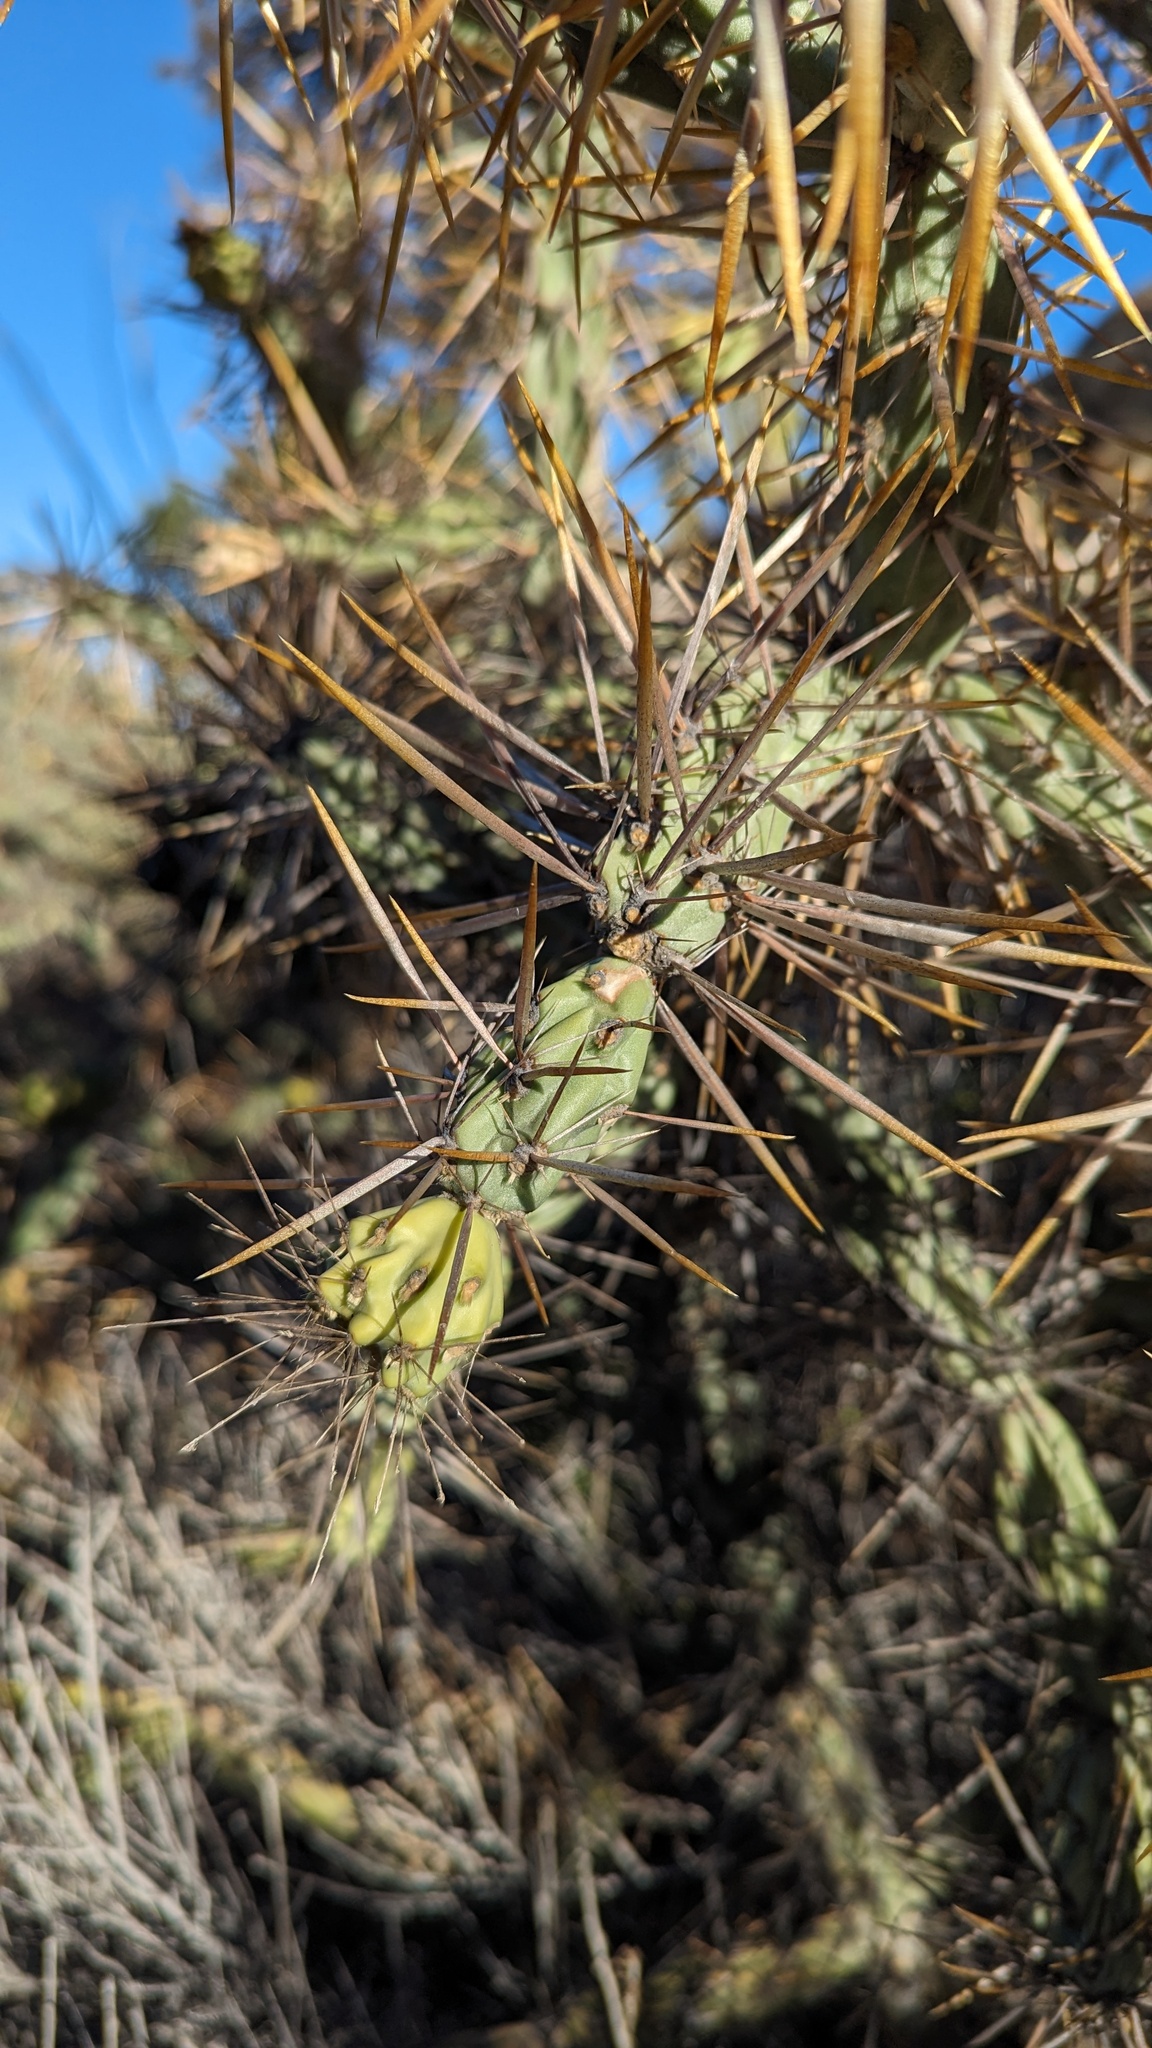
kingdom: Plantae
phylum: Tracheophyta
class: Magnoliopsida
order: Caryophyllales
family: Cactaceae
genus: Cylindropuntia
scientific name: Cylindropuntia molesta
